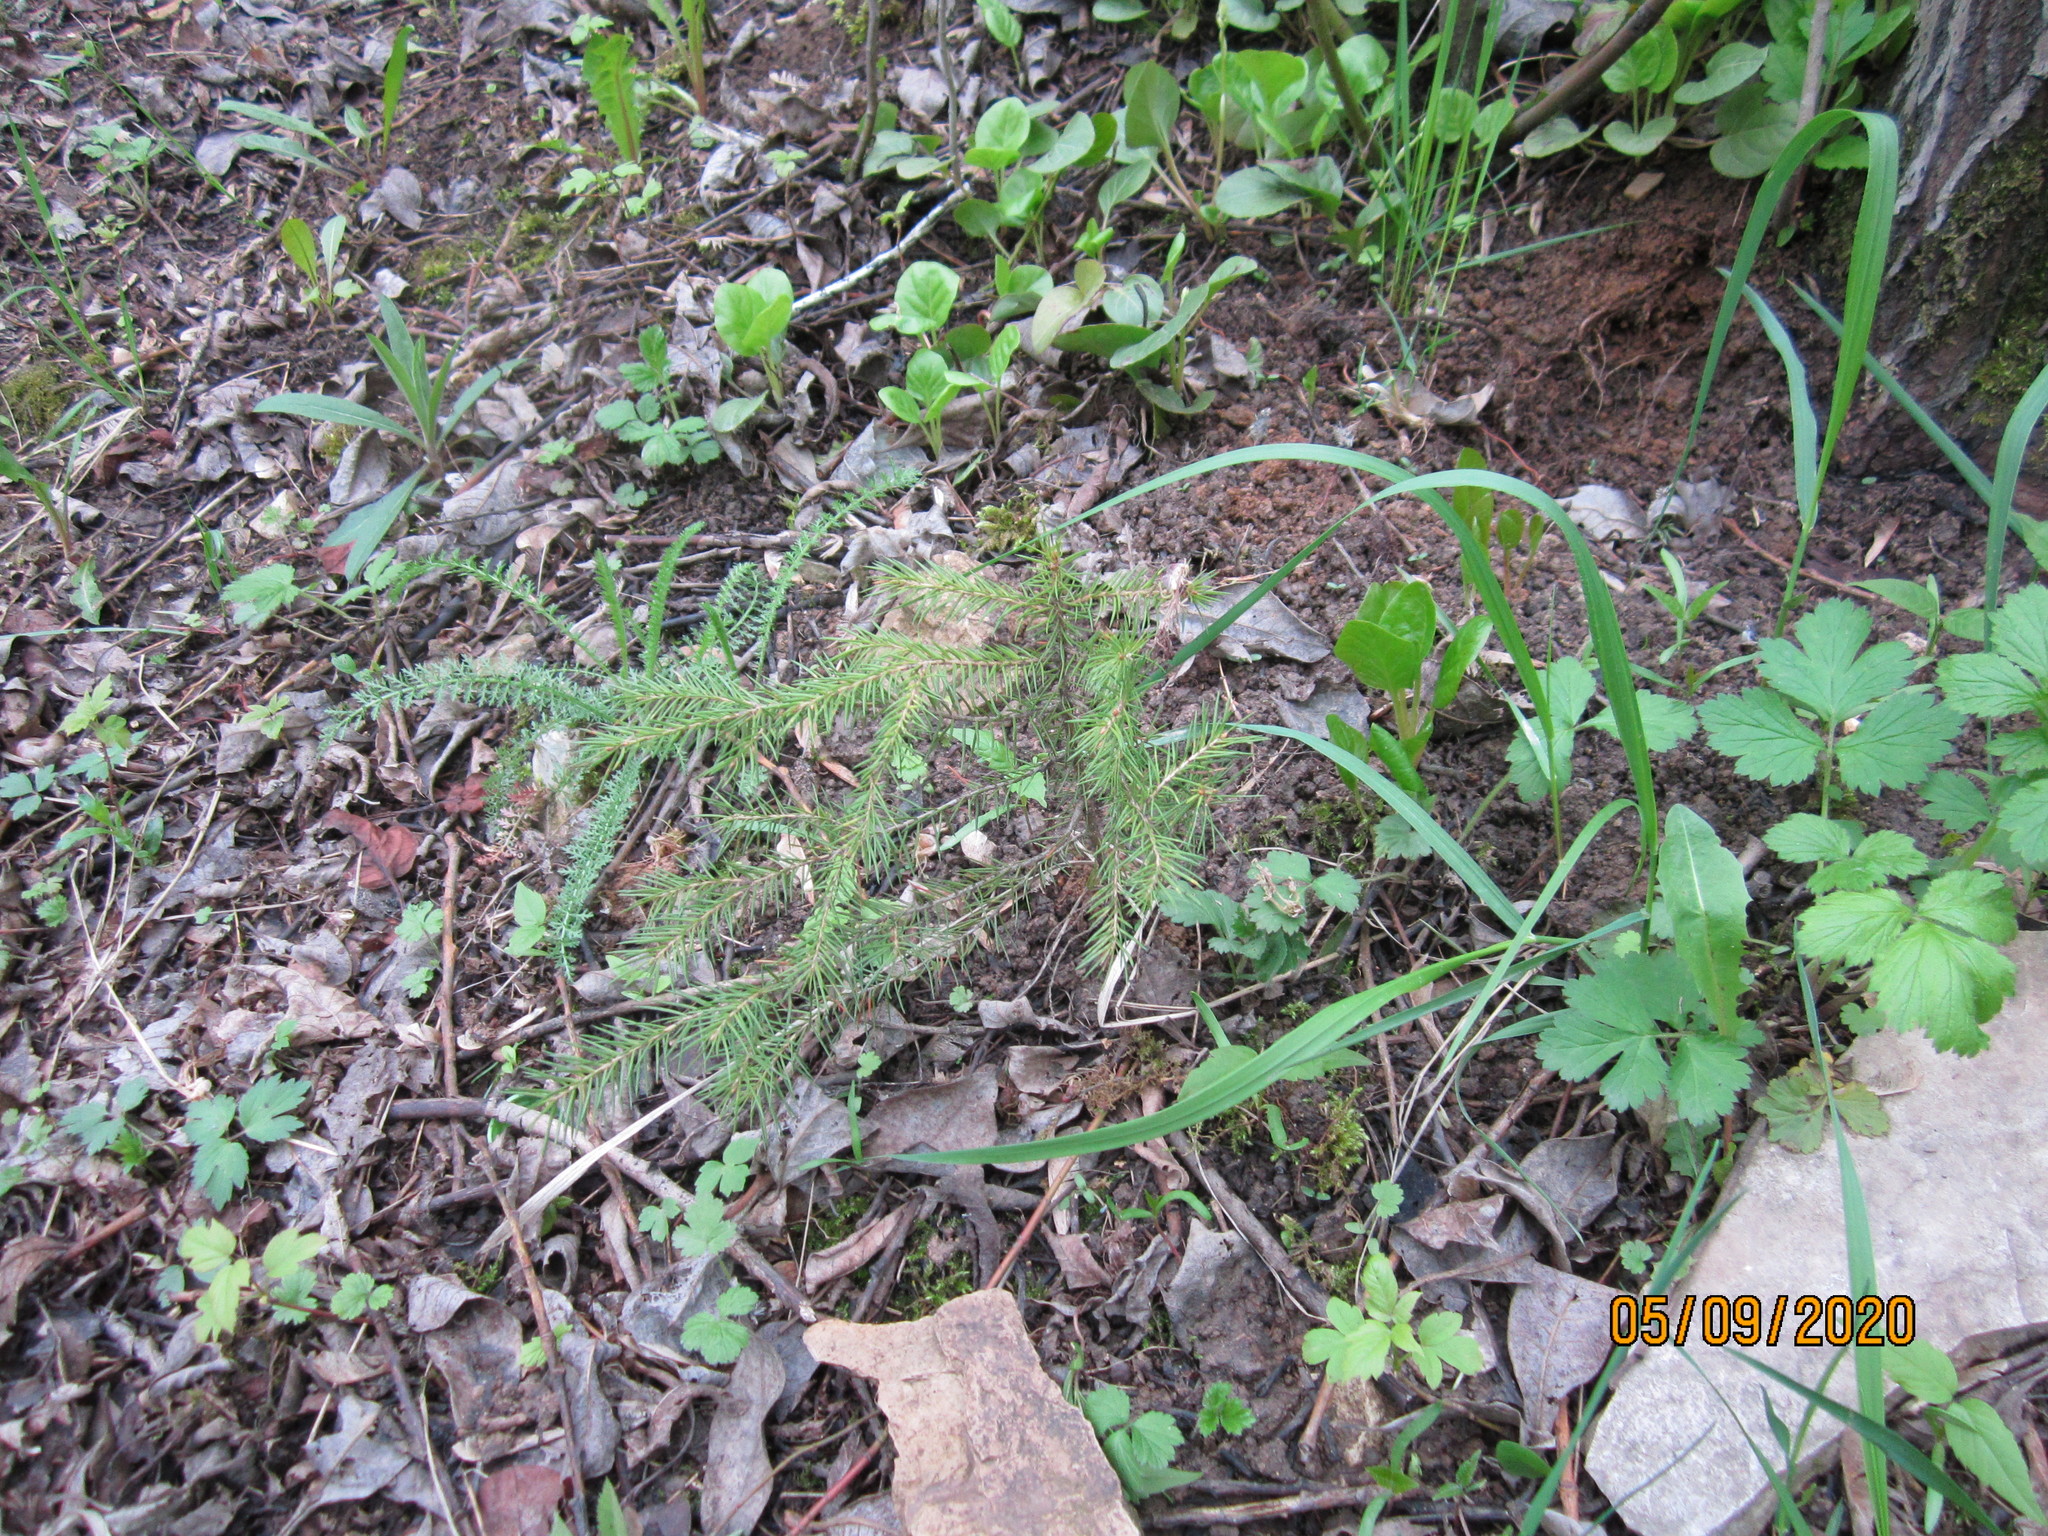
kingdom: Plantae
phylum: Tracheophyta
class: Pinopsida
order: Pinales
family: Pinaceae
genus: Picea
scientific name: Picea abies
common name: Norway spruce
